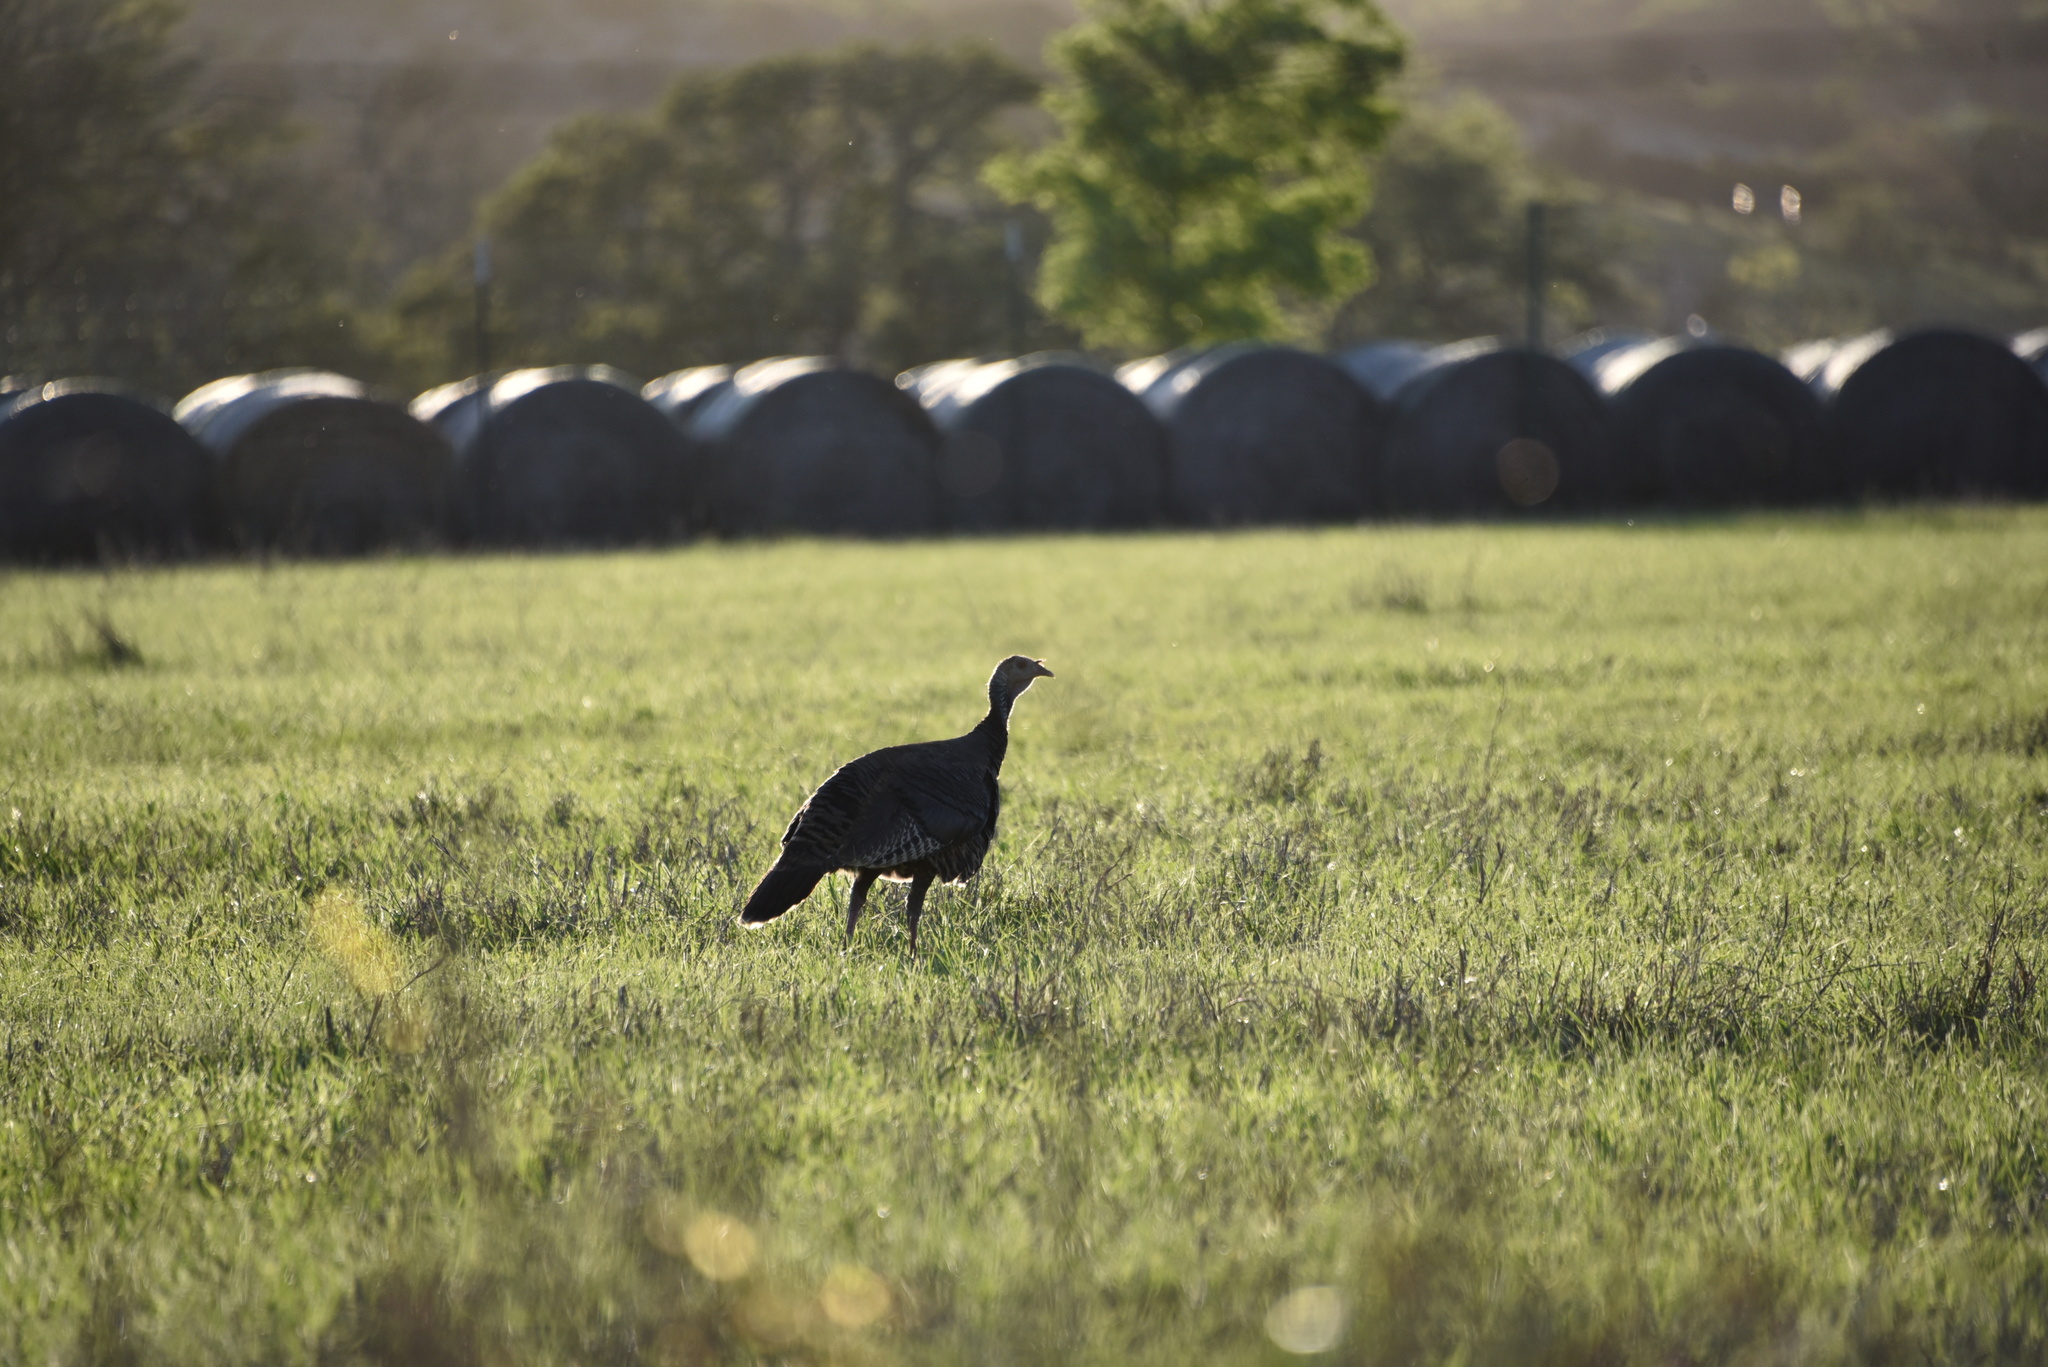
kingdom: Animalia
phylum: Chordata
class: Aves
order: Galliformes
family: Phasianidae
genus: Meleagris
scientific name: Meleagris gallopavo
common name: Wild turkey
